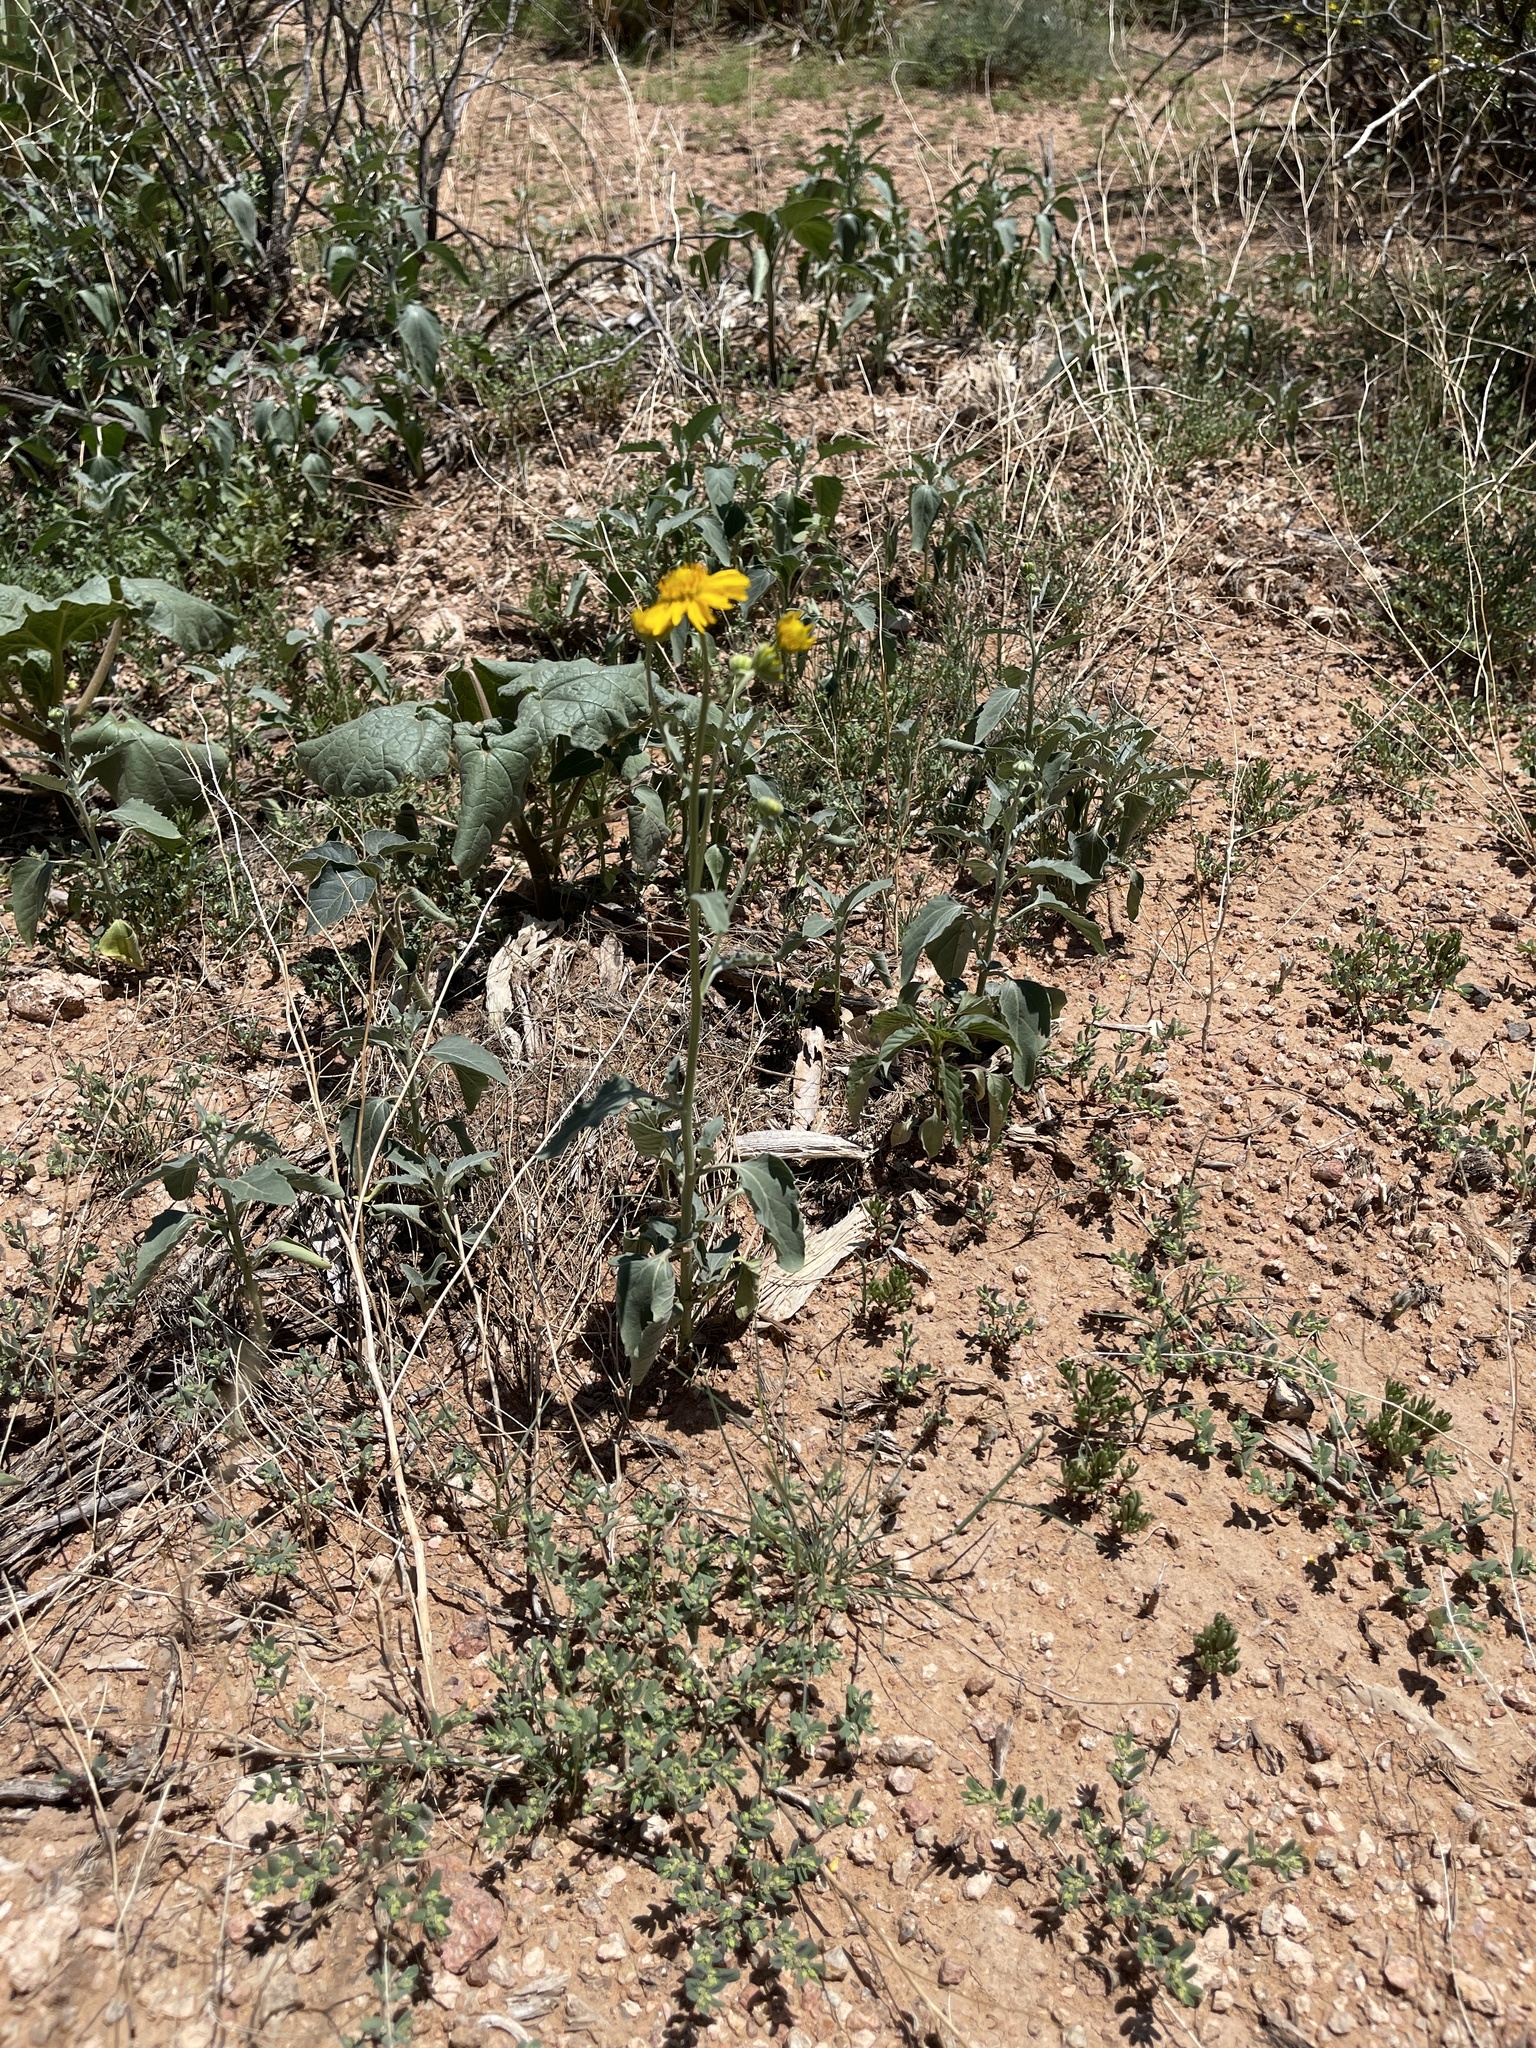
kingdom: Plantae
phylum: Tracheophyta
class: Magnoliopsida
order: Asterales
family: Asteraceae
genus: Verbesina
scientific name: Verbesina encelioides
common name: Golden crownbeard
